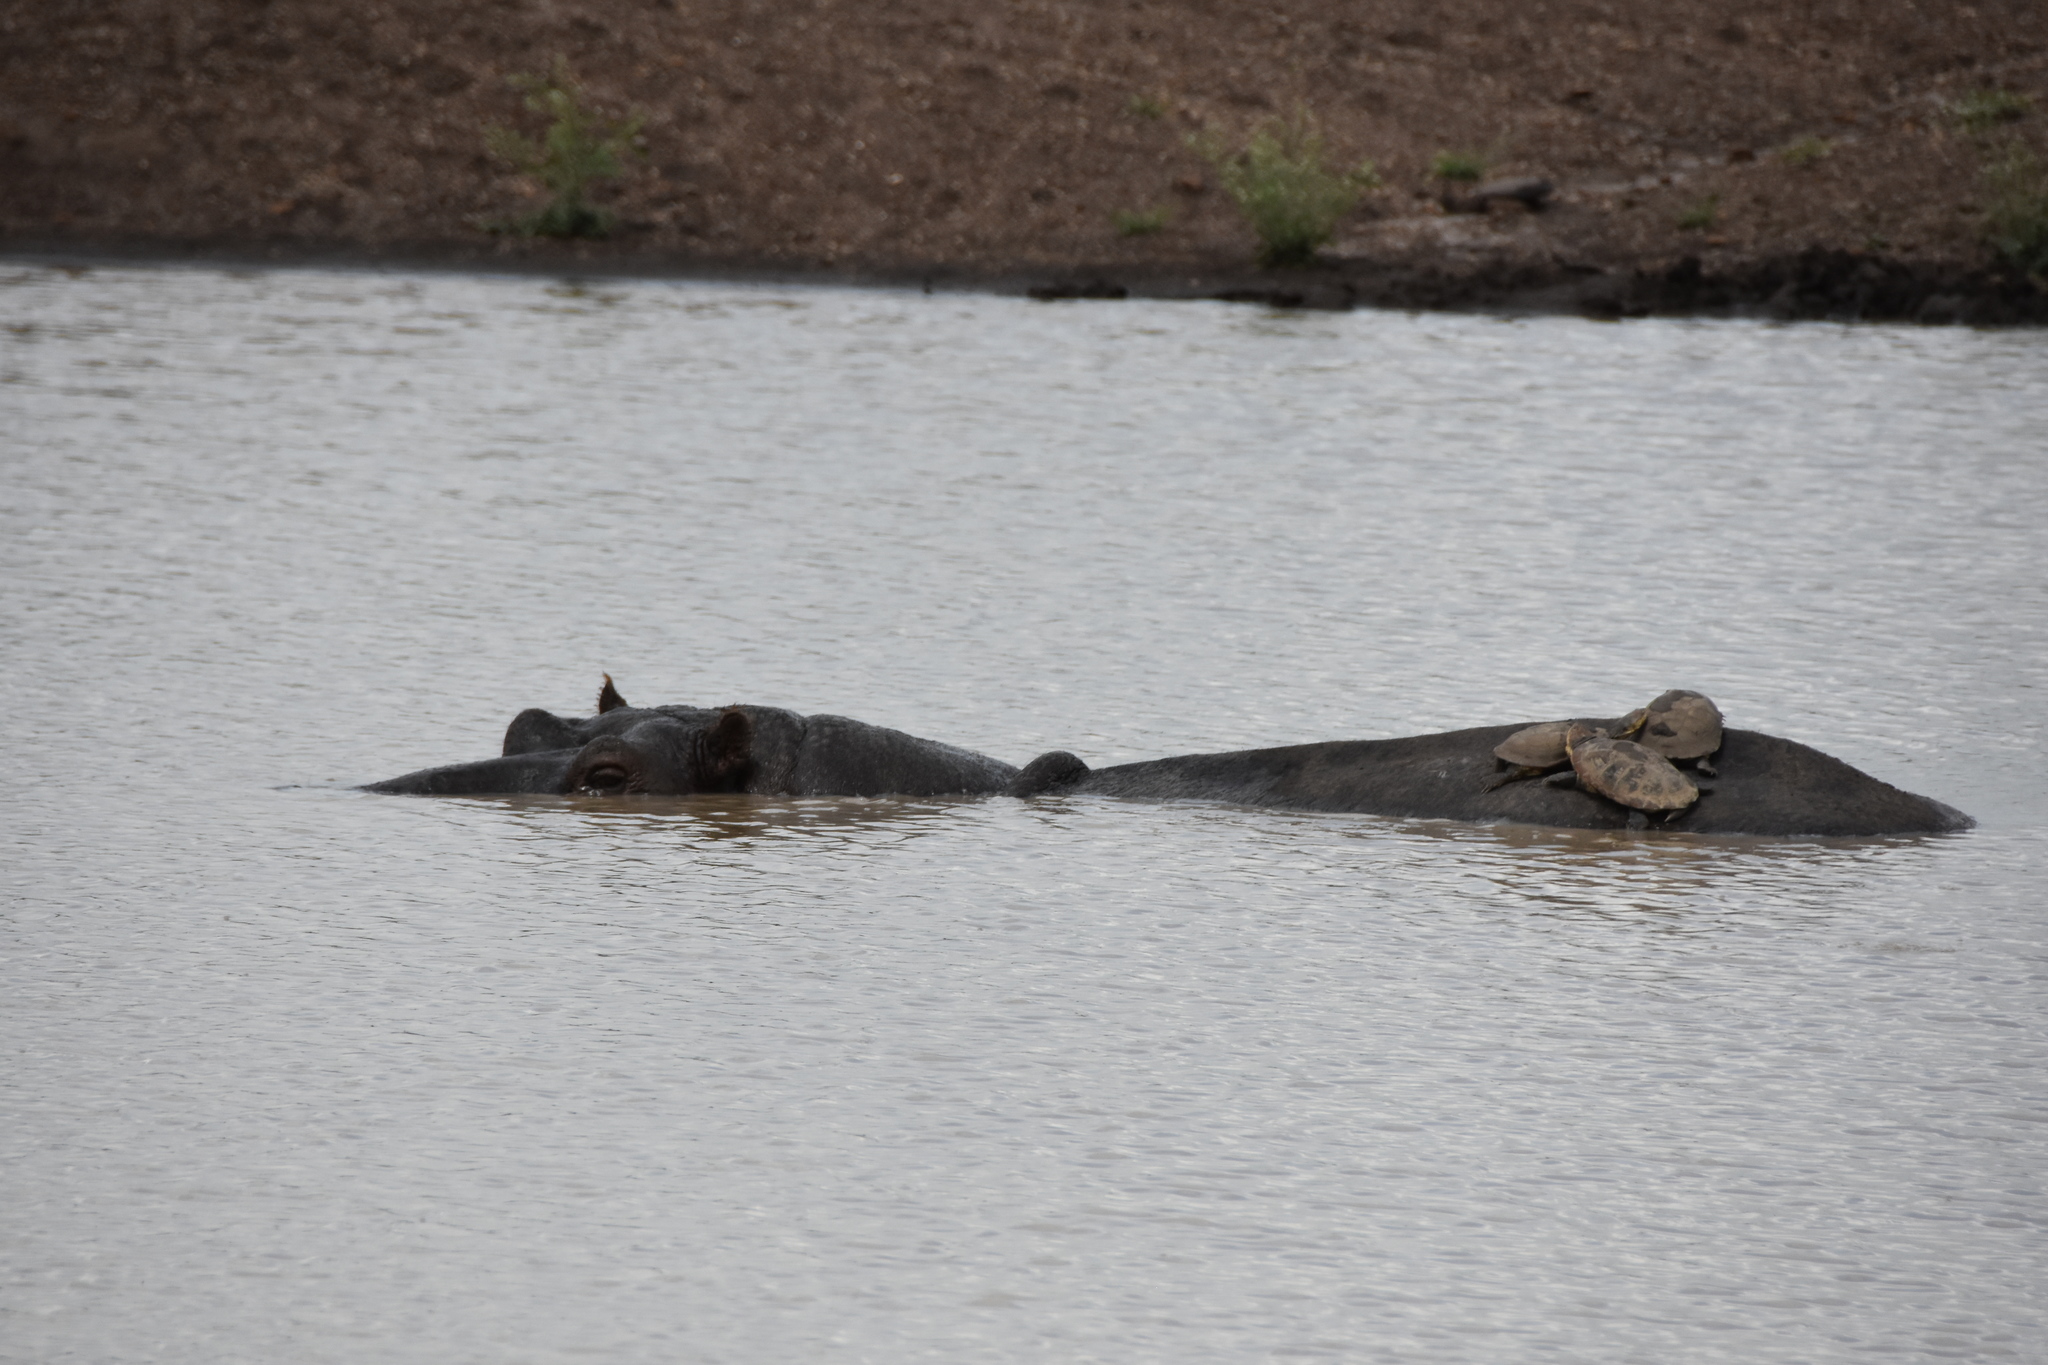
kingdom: Animalia
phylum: Chordata
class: Mammalia
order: Artiodactyla
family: Hippopotamidae
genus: Hippopotamus
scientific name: Hippopotamus amphibius
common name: Common hippopotamus
